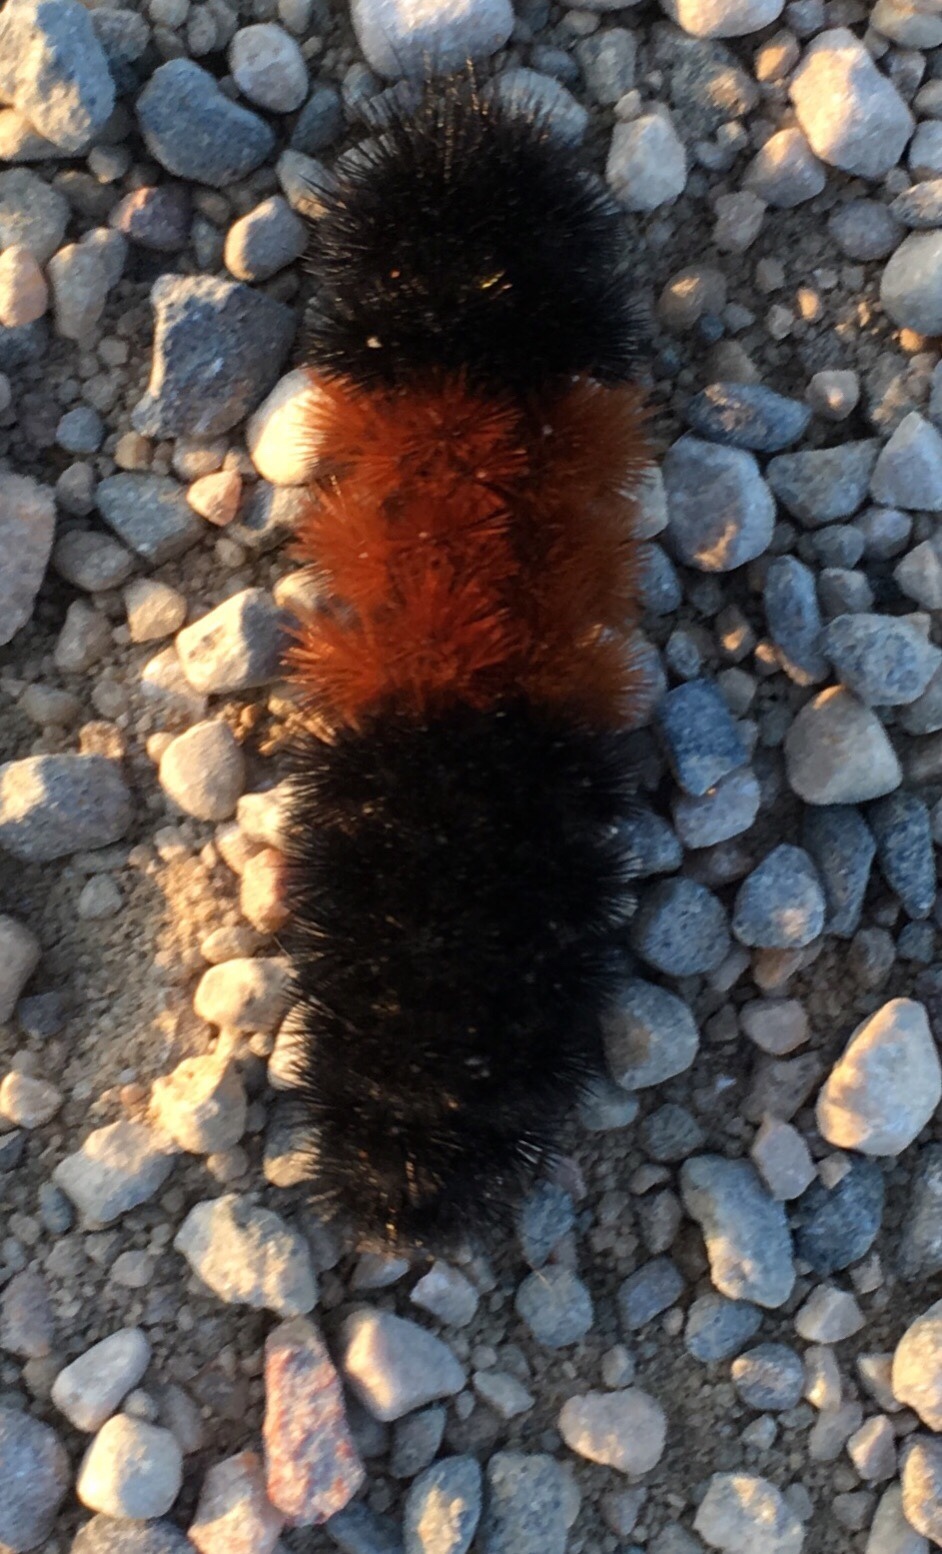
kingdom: Animalia
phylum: Arthropoda
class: Insecta
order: Lepidoptera
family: Erebidae
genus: Pyrrharctia
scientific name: Pyrrharctia isabella
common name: Isabella tiger moth
